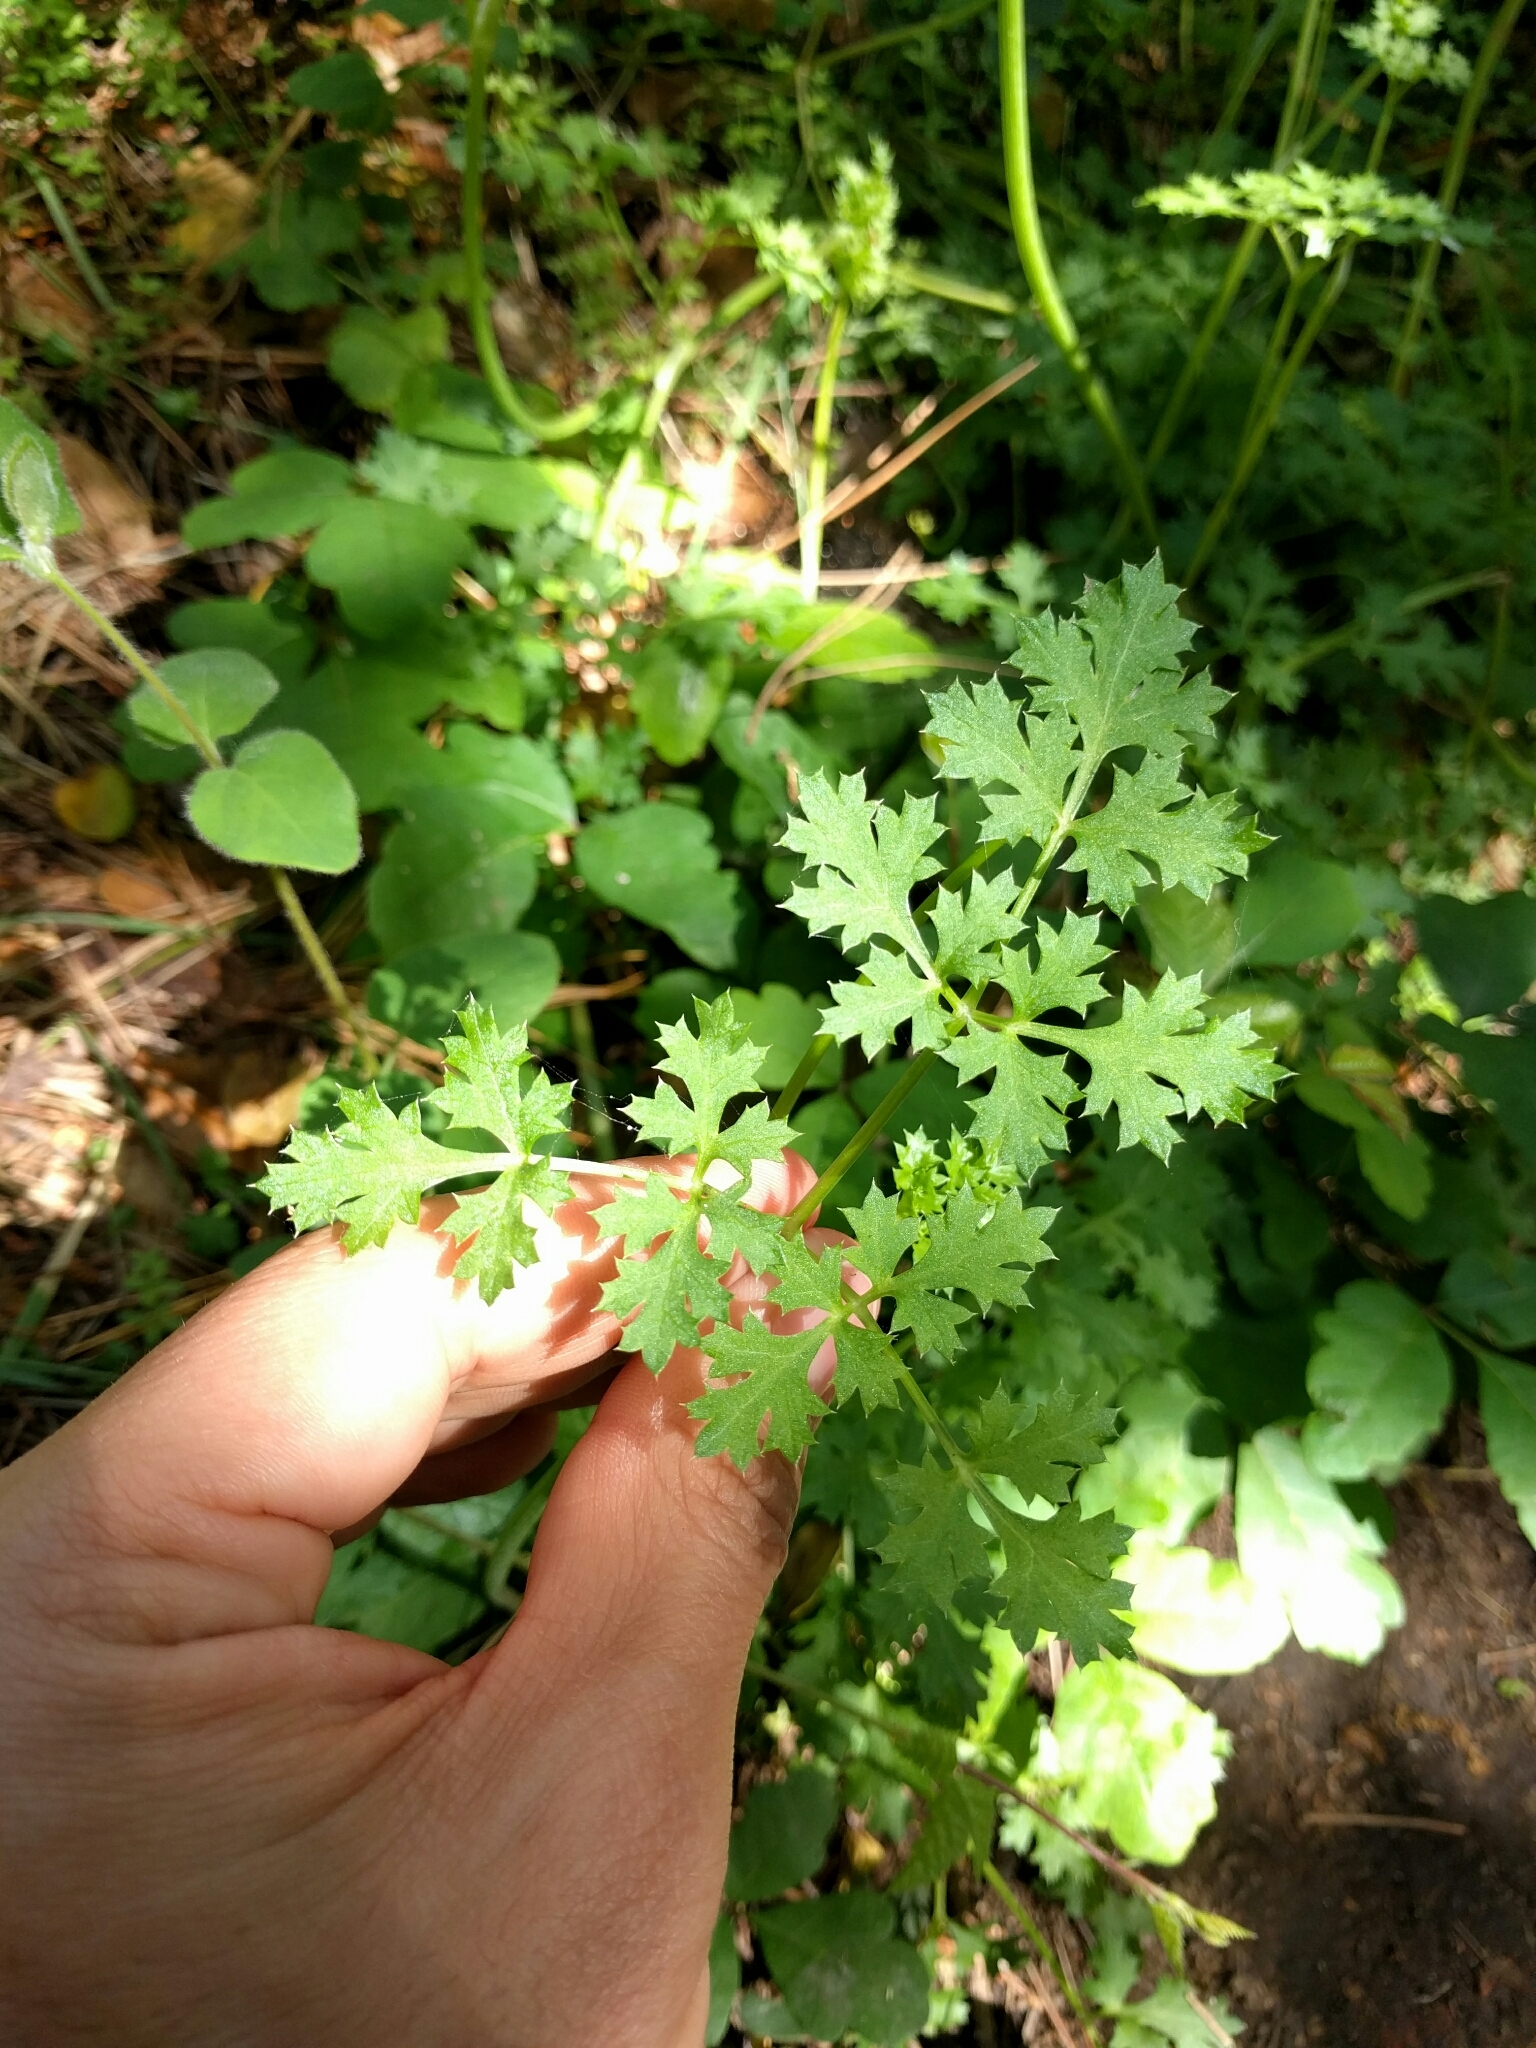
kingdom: Plantae
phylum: Tracheophyta
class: Magnoliopsida
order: Apiales
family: Apiaceae
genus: Lomatium
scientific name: Lomatium parvifolium
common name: Small-leaf lomatium
